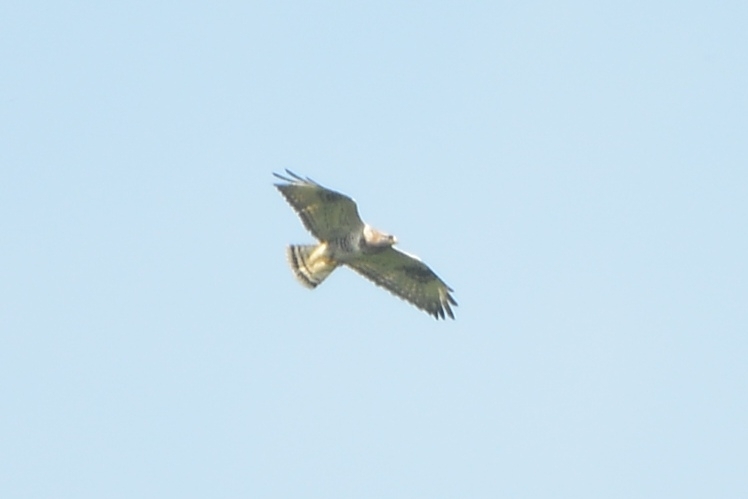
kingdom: Animalia
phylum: Chordata
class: Aves
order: Accipitriformes
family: Accipitridae
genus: Buteo
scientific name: Buteo lagopus
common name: Rough-legged buzzard
